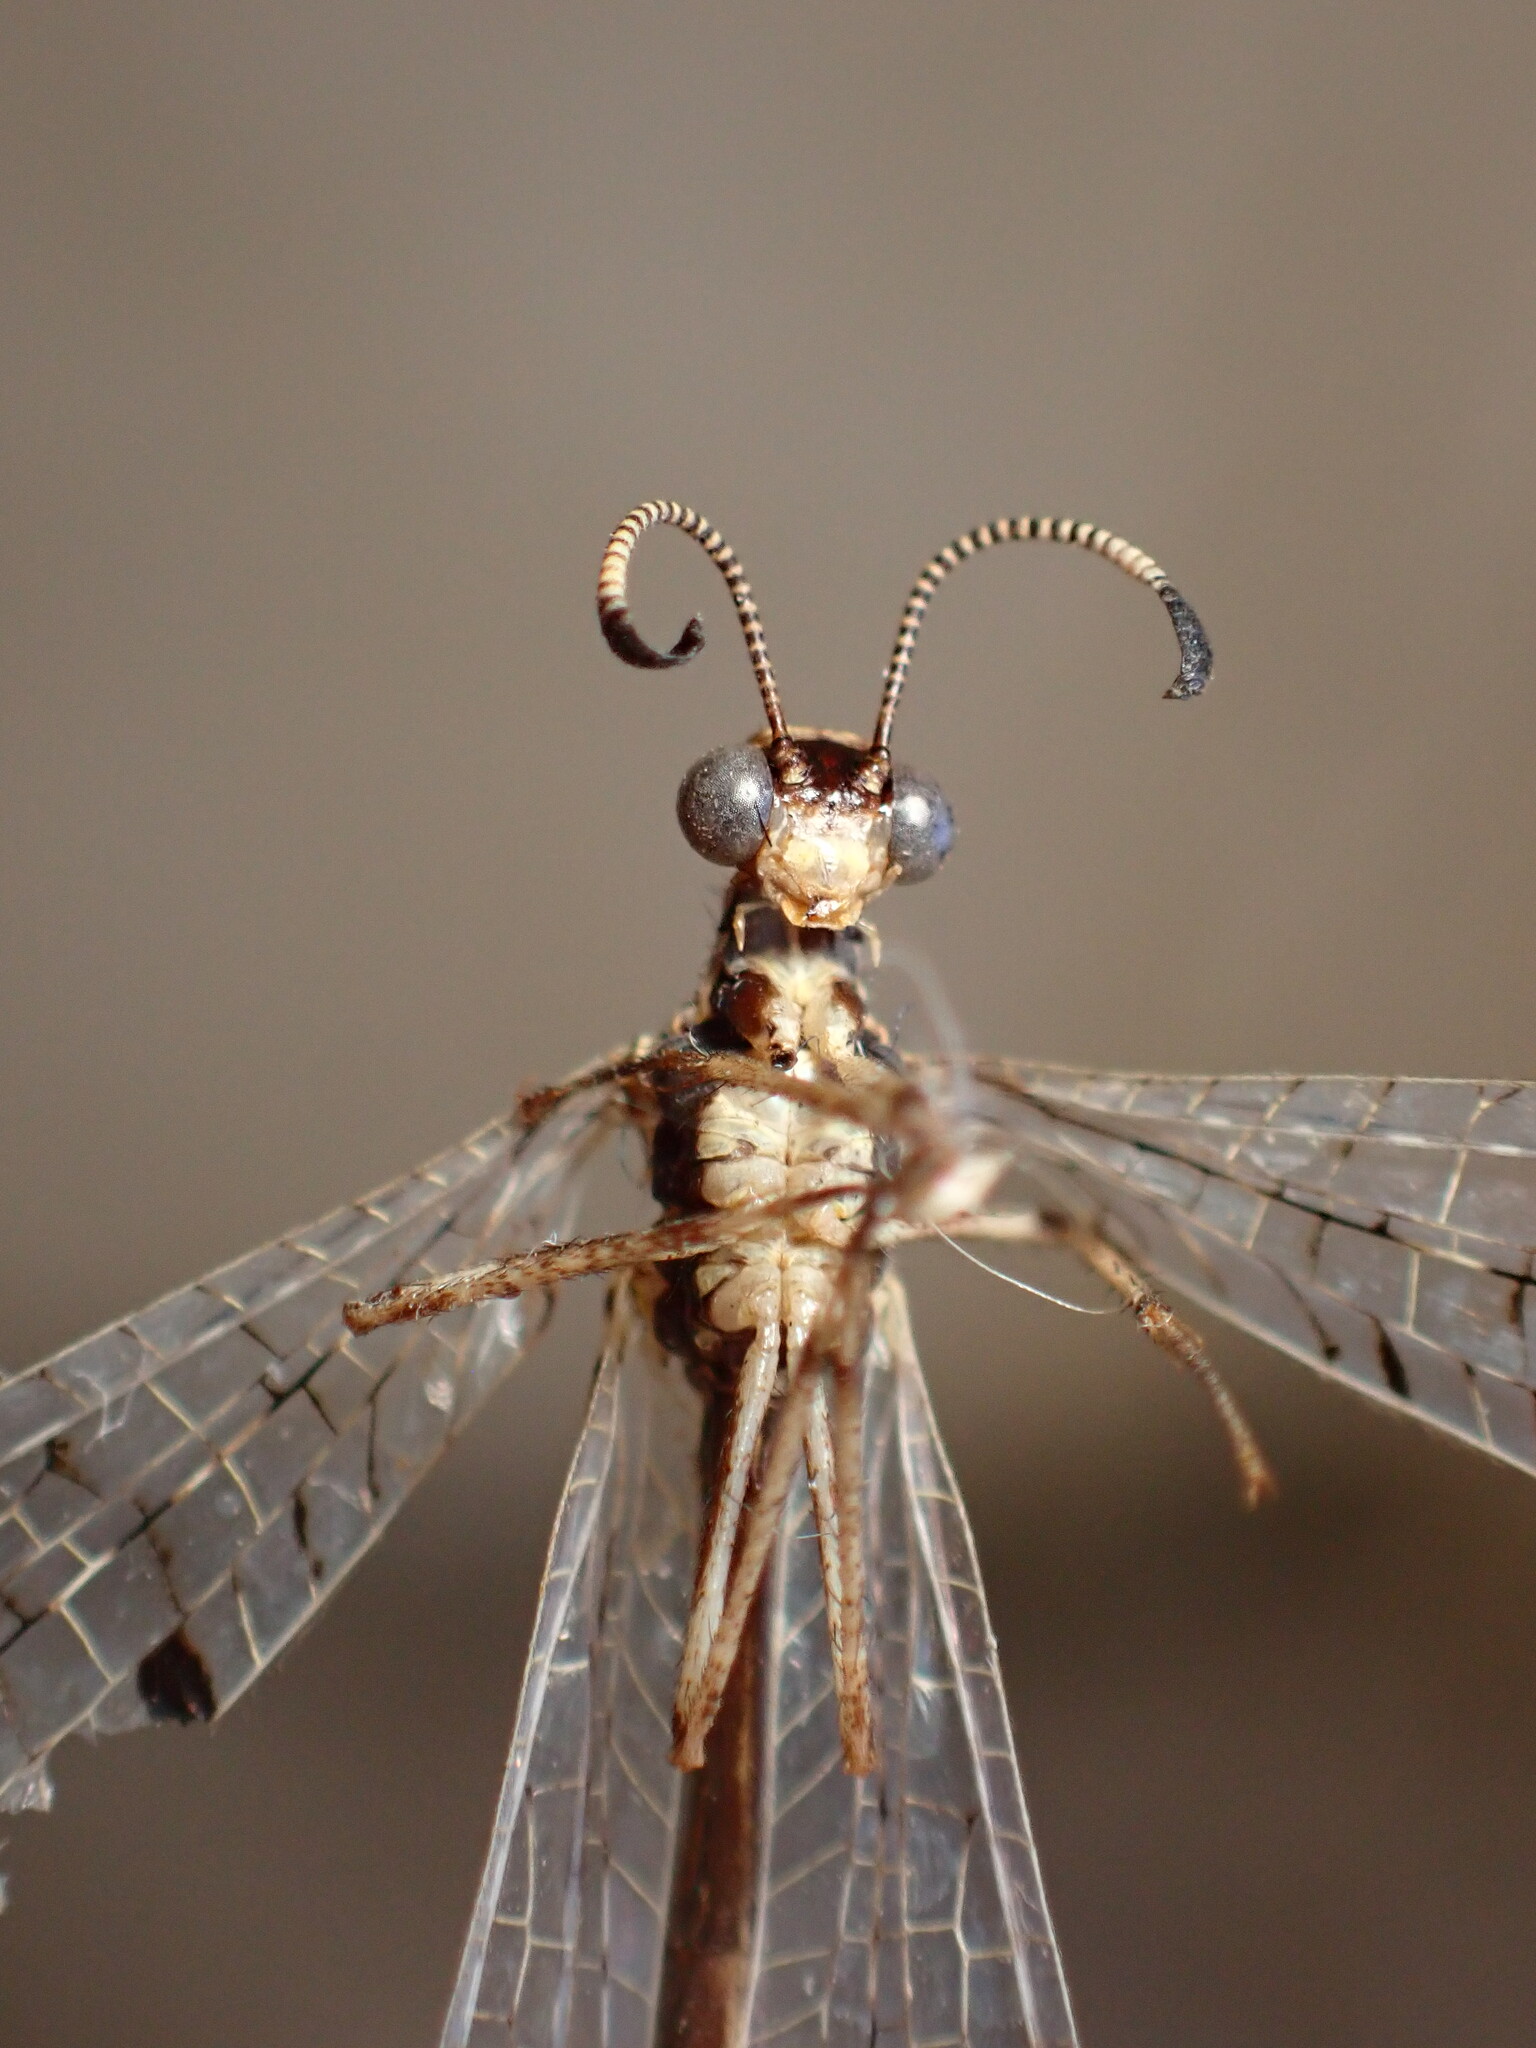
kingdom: Animalia
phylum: Arthropoda
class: Insecta
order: Neuroptera
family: Myrmeleontidae
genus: Dendroleon
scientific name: Dendroleon speciosus
